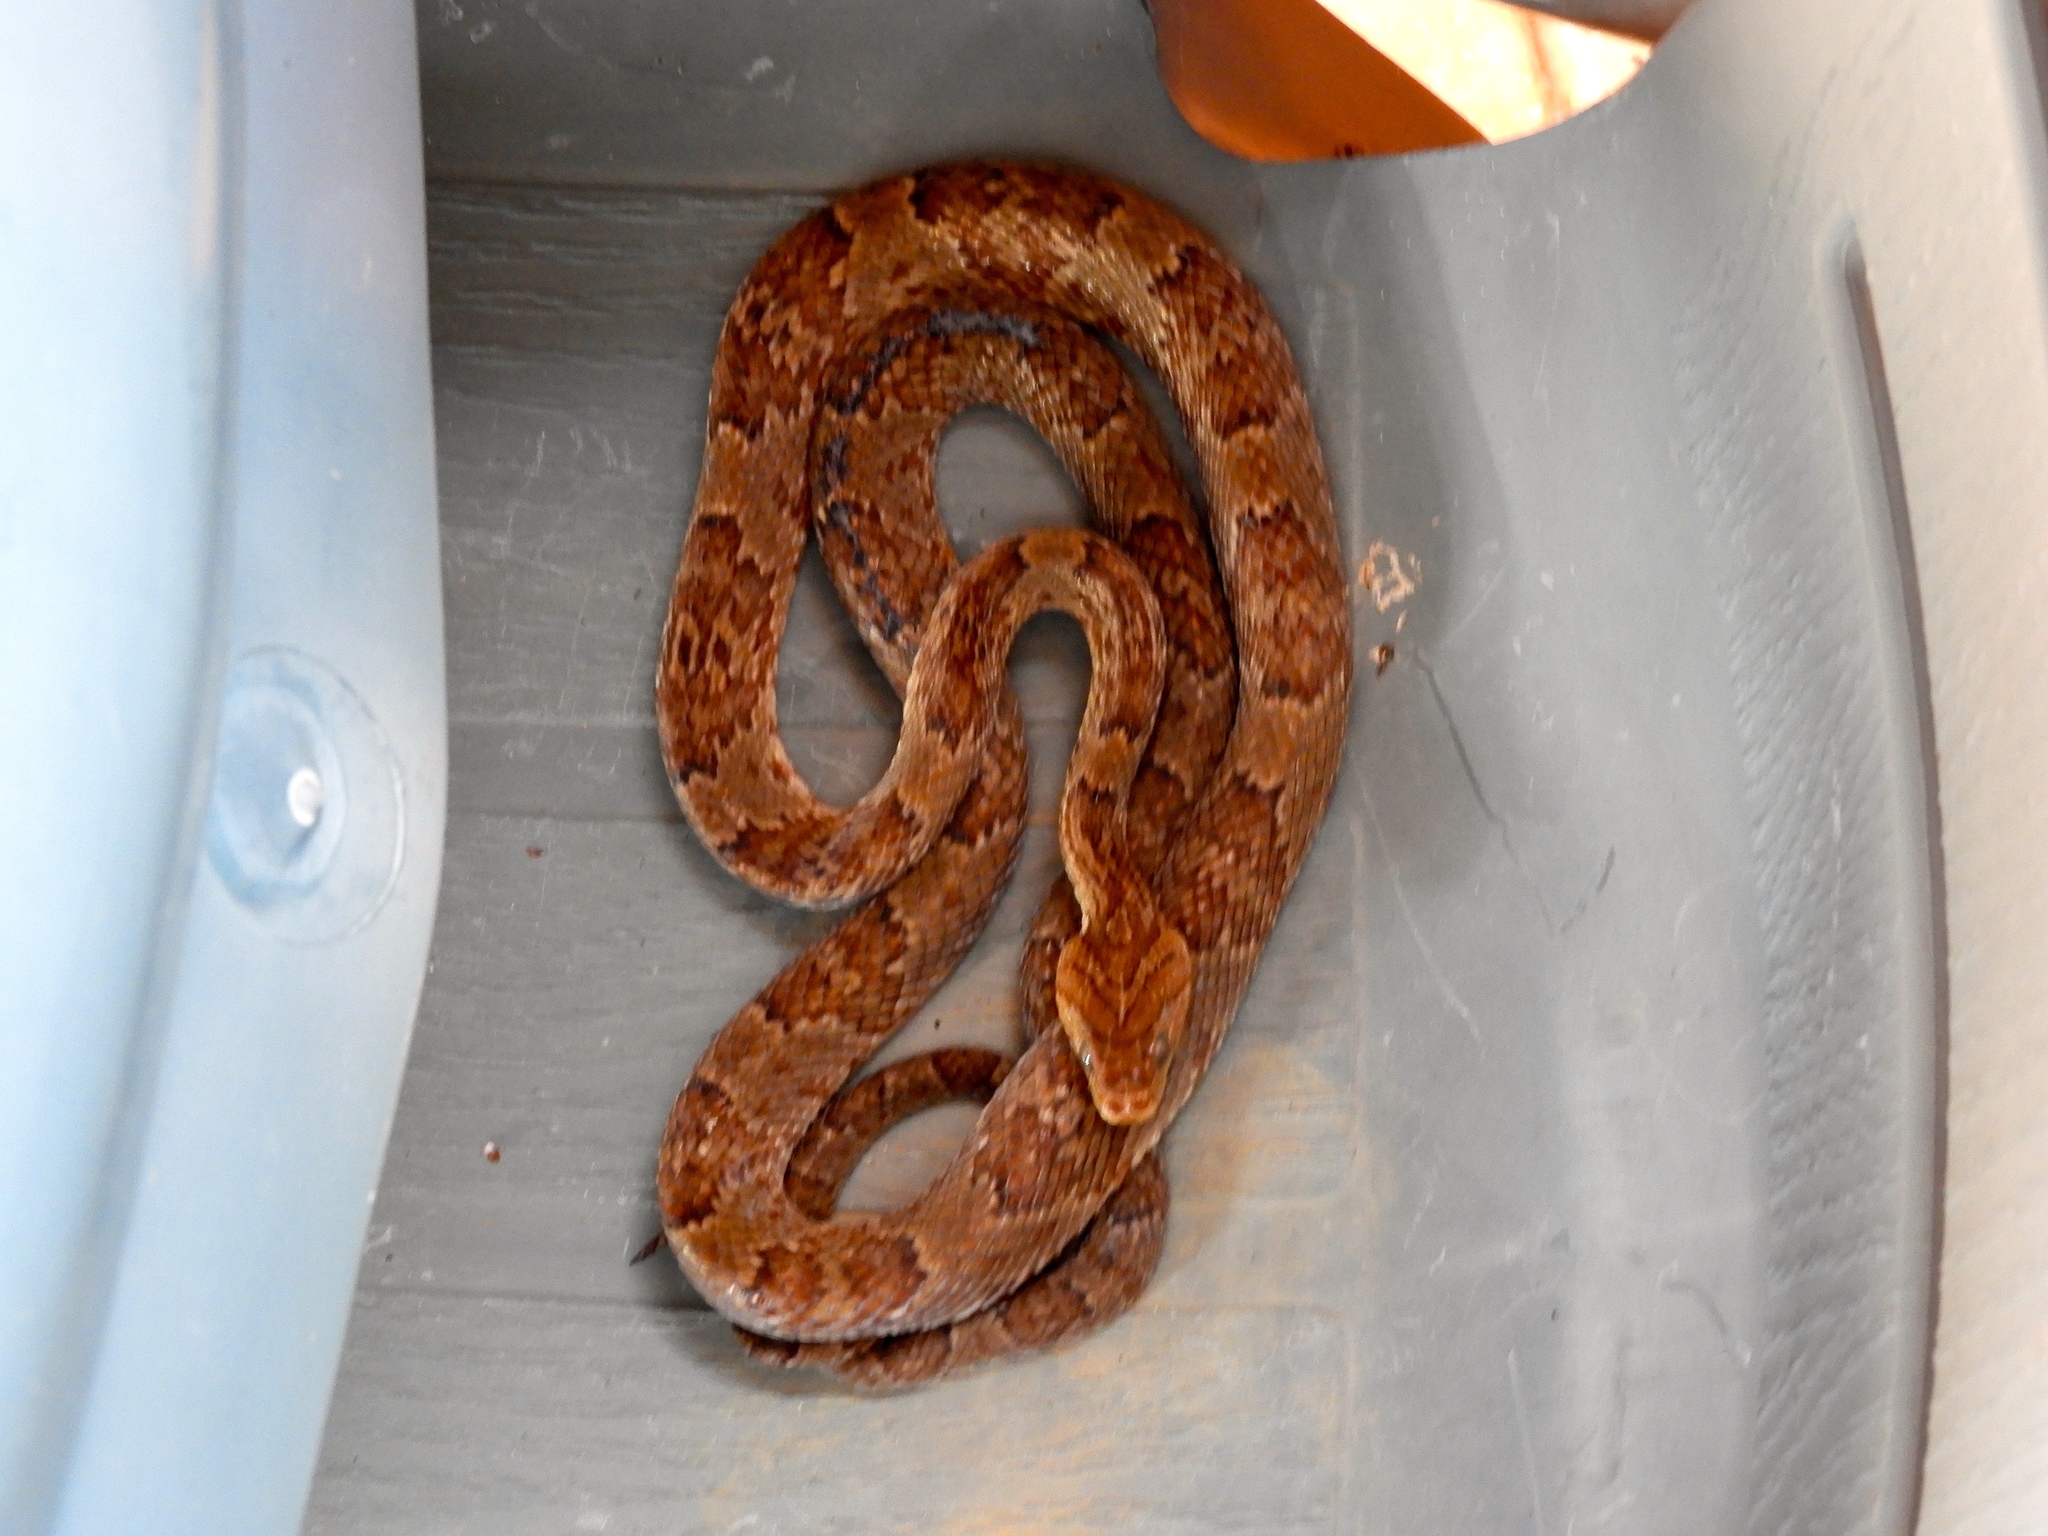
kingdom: Animalia
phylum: Chordata
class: Squamata
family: Colubridae
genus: Trimorphodon
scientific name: Trimorphodon paucimaculatus
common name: Sinaloan lyresnake
